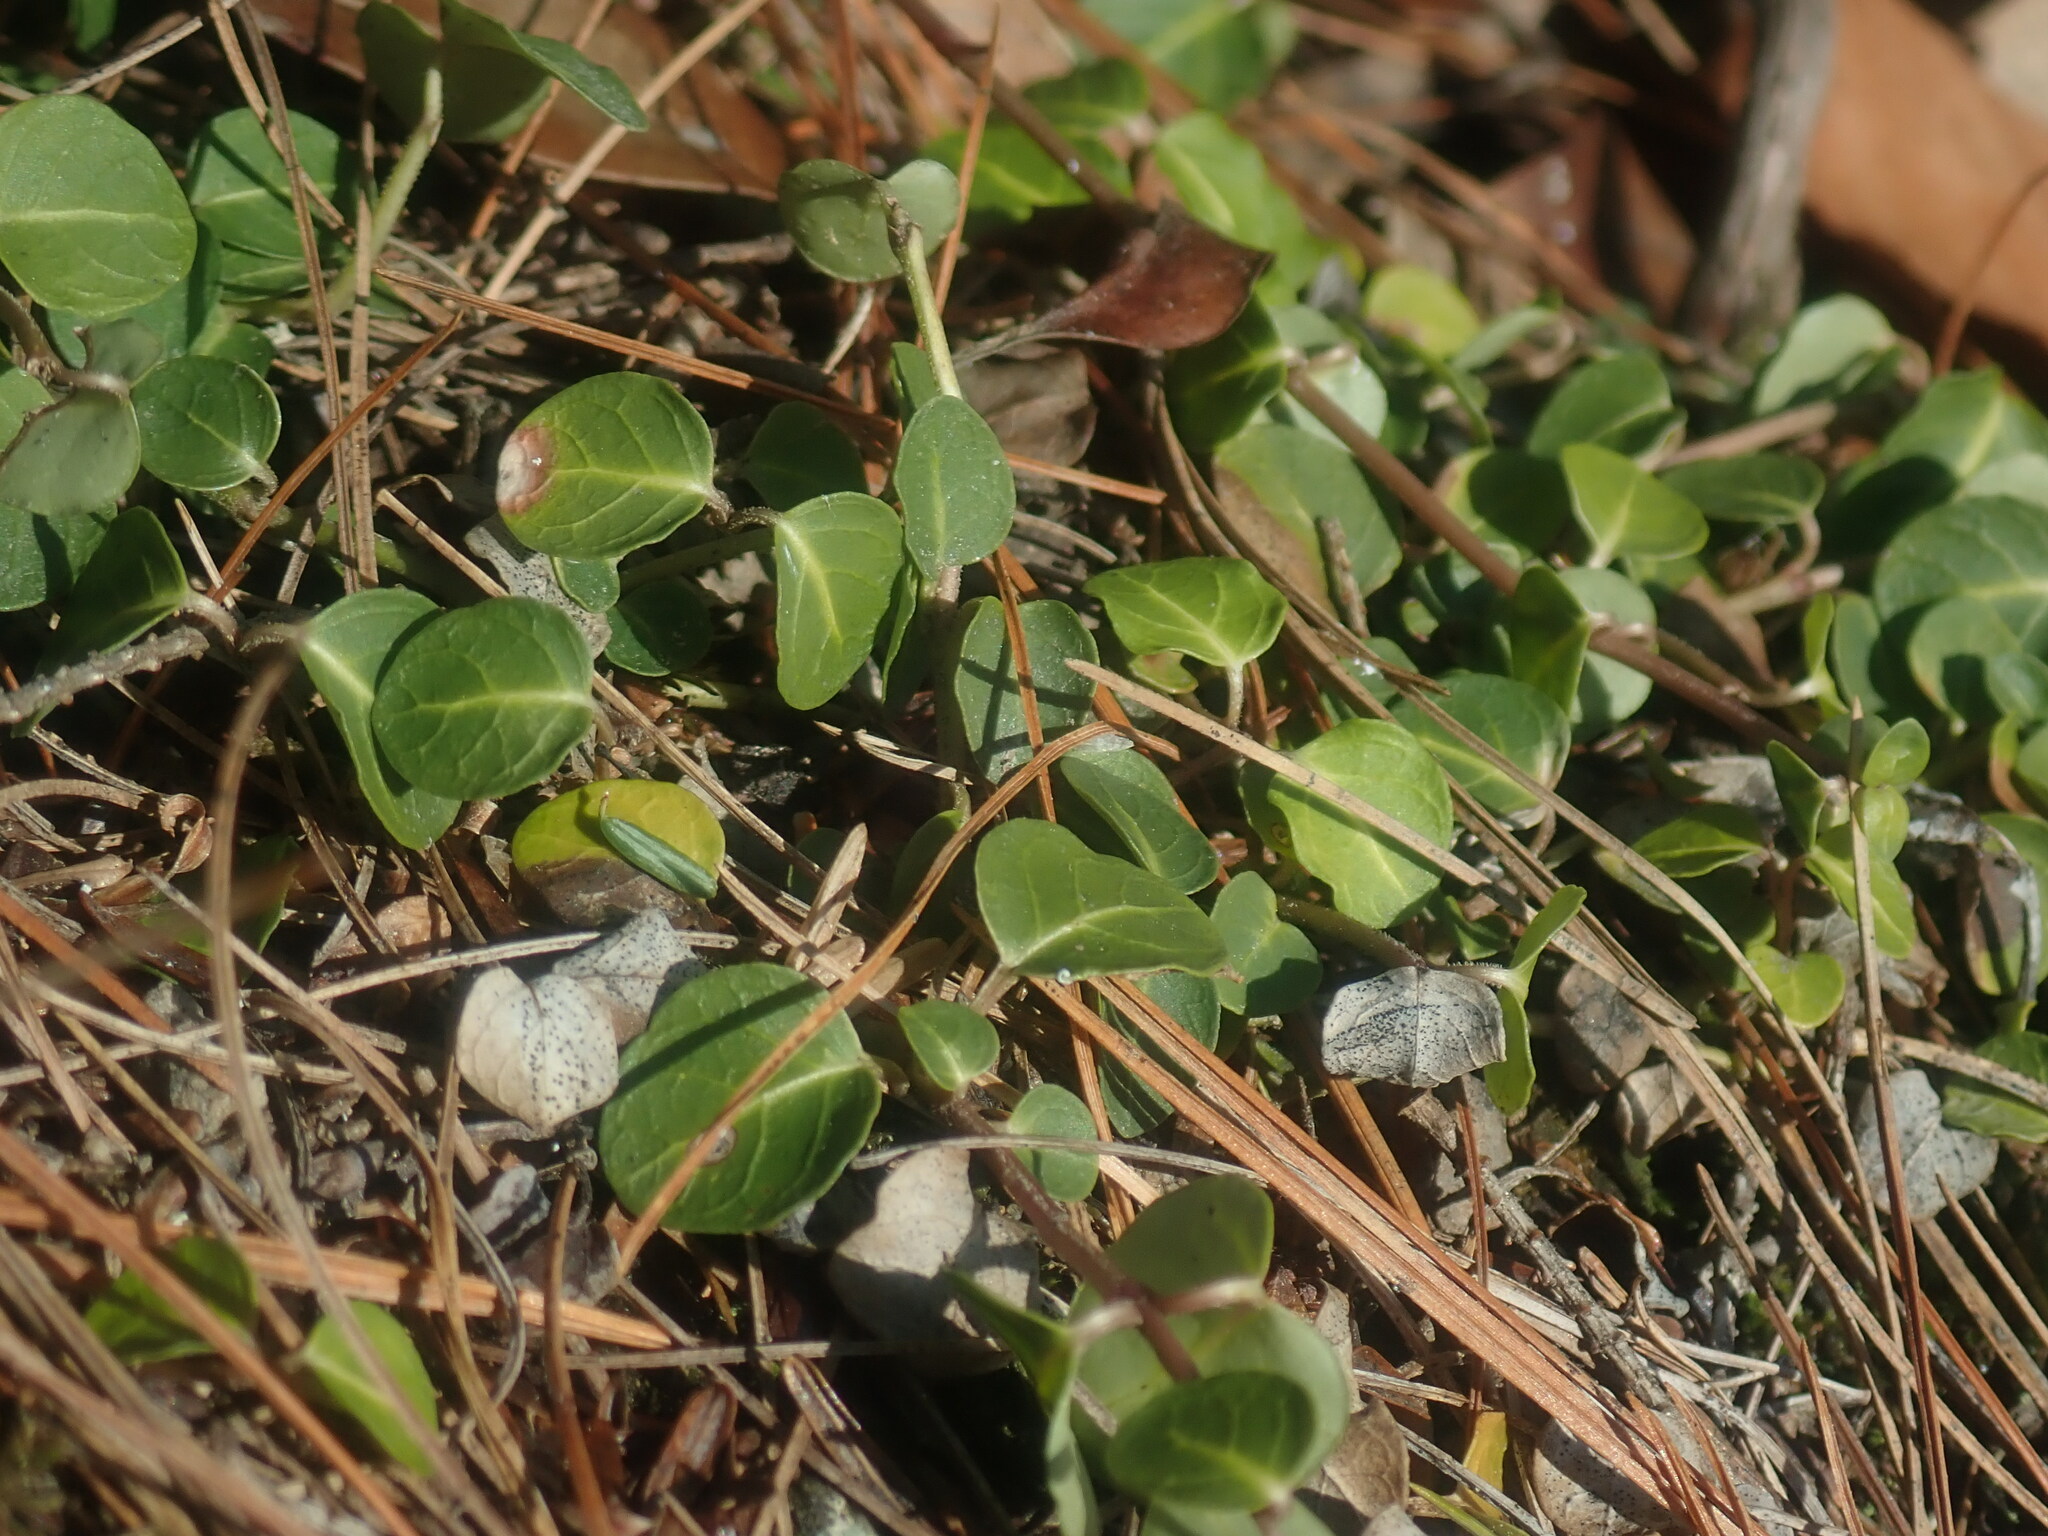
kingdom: Plantae
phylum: Tracheophyta
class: Magnoliopsida
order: Gentianales
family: Rubiaceae
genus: Mitchella
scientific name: Mitchella repens
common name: Partridge-berry
